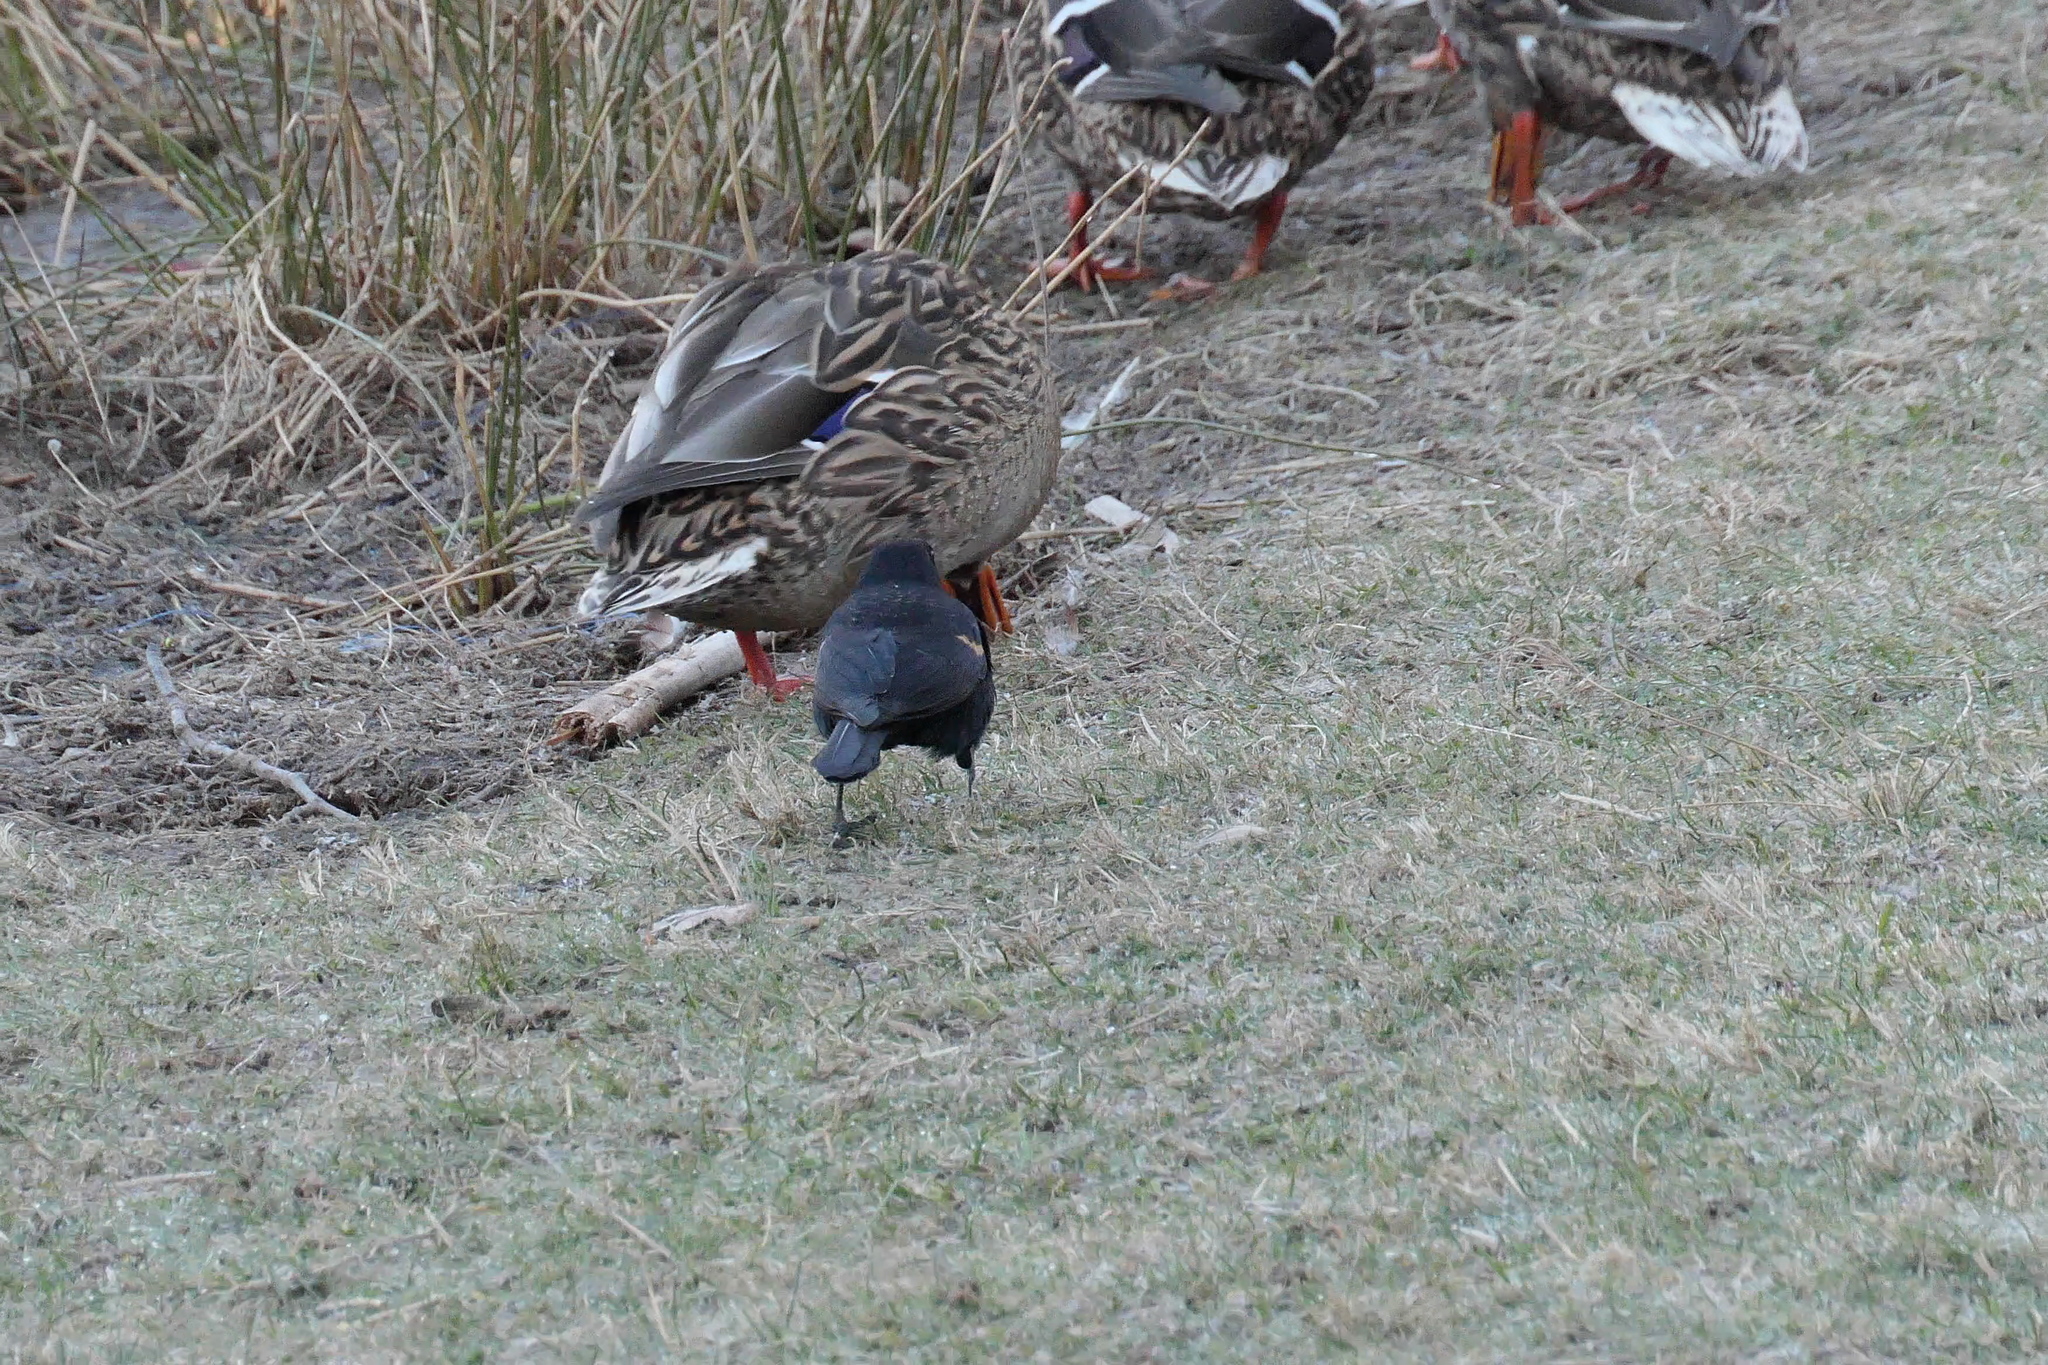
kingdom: Animalia
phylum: Chordata
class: Aves
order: Passeriformes
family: Icteridae
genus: Agelaius
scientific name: Agelaius phoeniceus
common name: Red-winged blackbird
